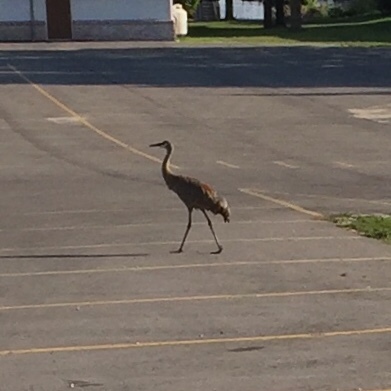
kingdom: Animalia
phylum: Chordata
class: Aves
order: Gruiformes
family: Gruidae
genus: Grus
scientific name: Grus canadensis
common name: Sandhill crane
